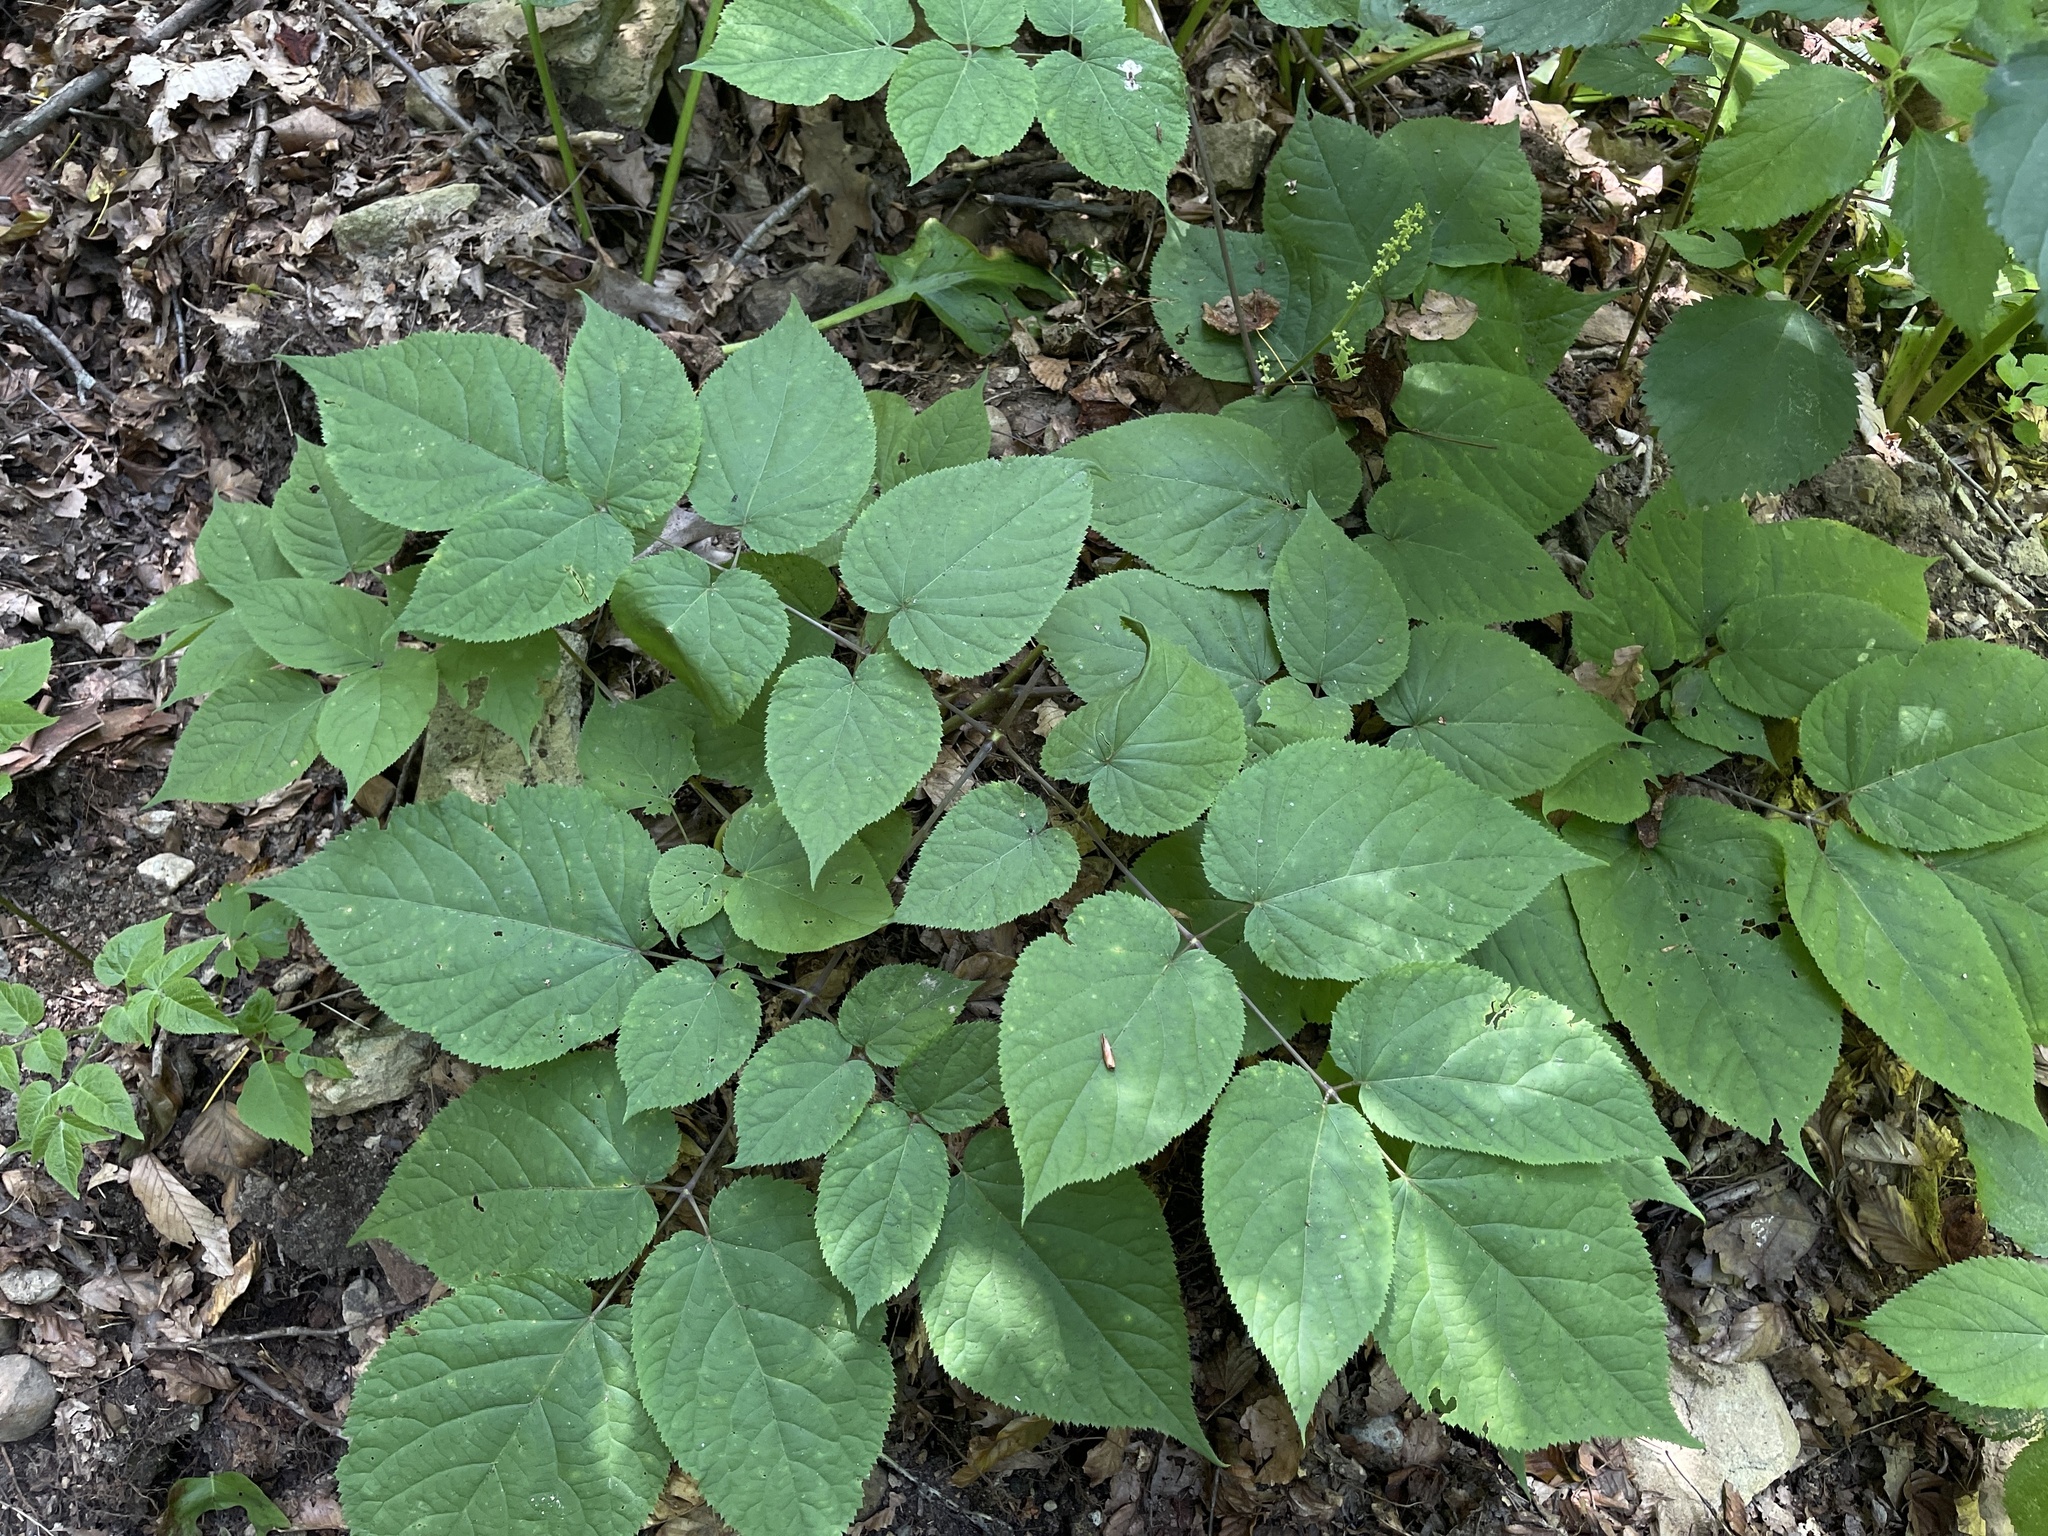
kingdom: Plantae
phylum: Tracheophyta
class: Magnoliopsida
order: Apiales
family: Araliaceae
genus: Aralia
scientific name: Aralia racemosa
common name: American-spikenard
